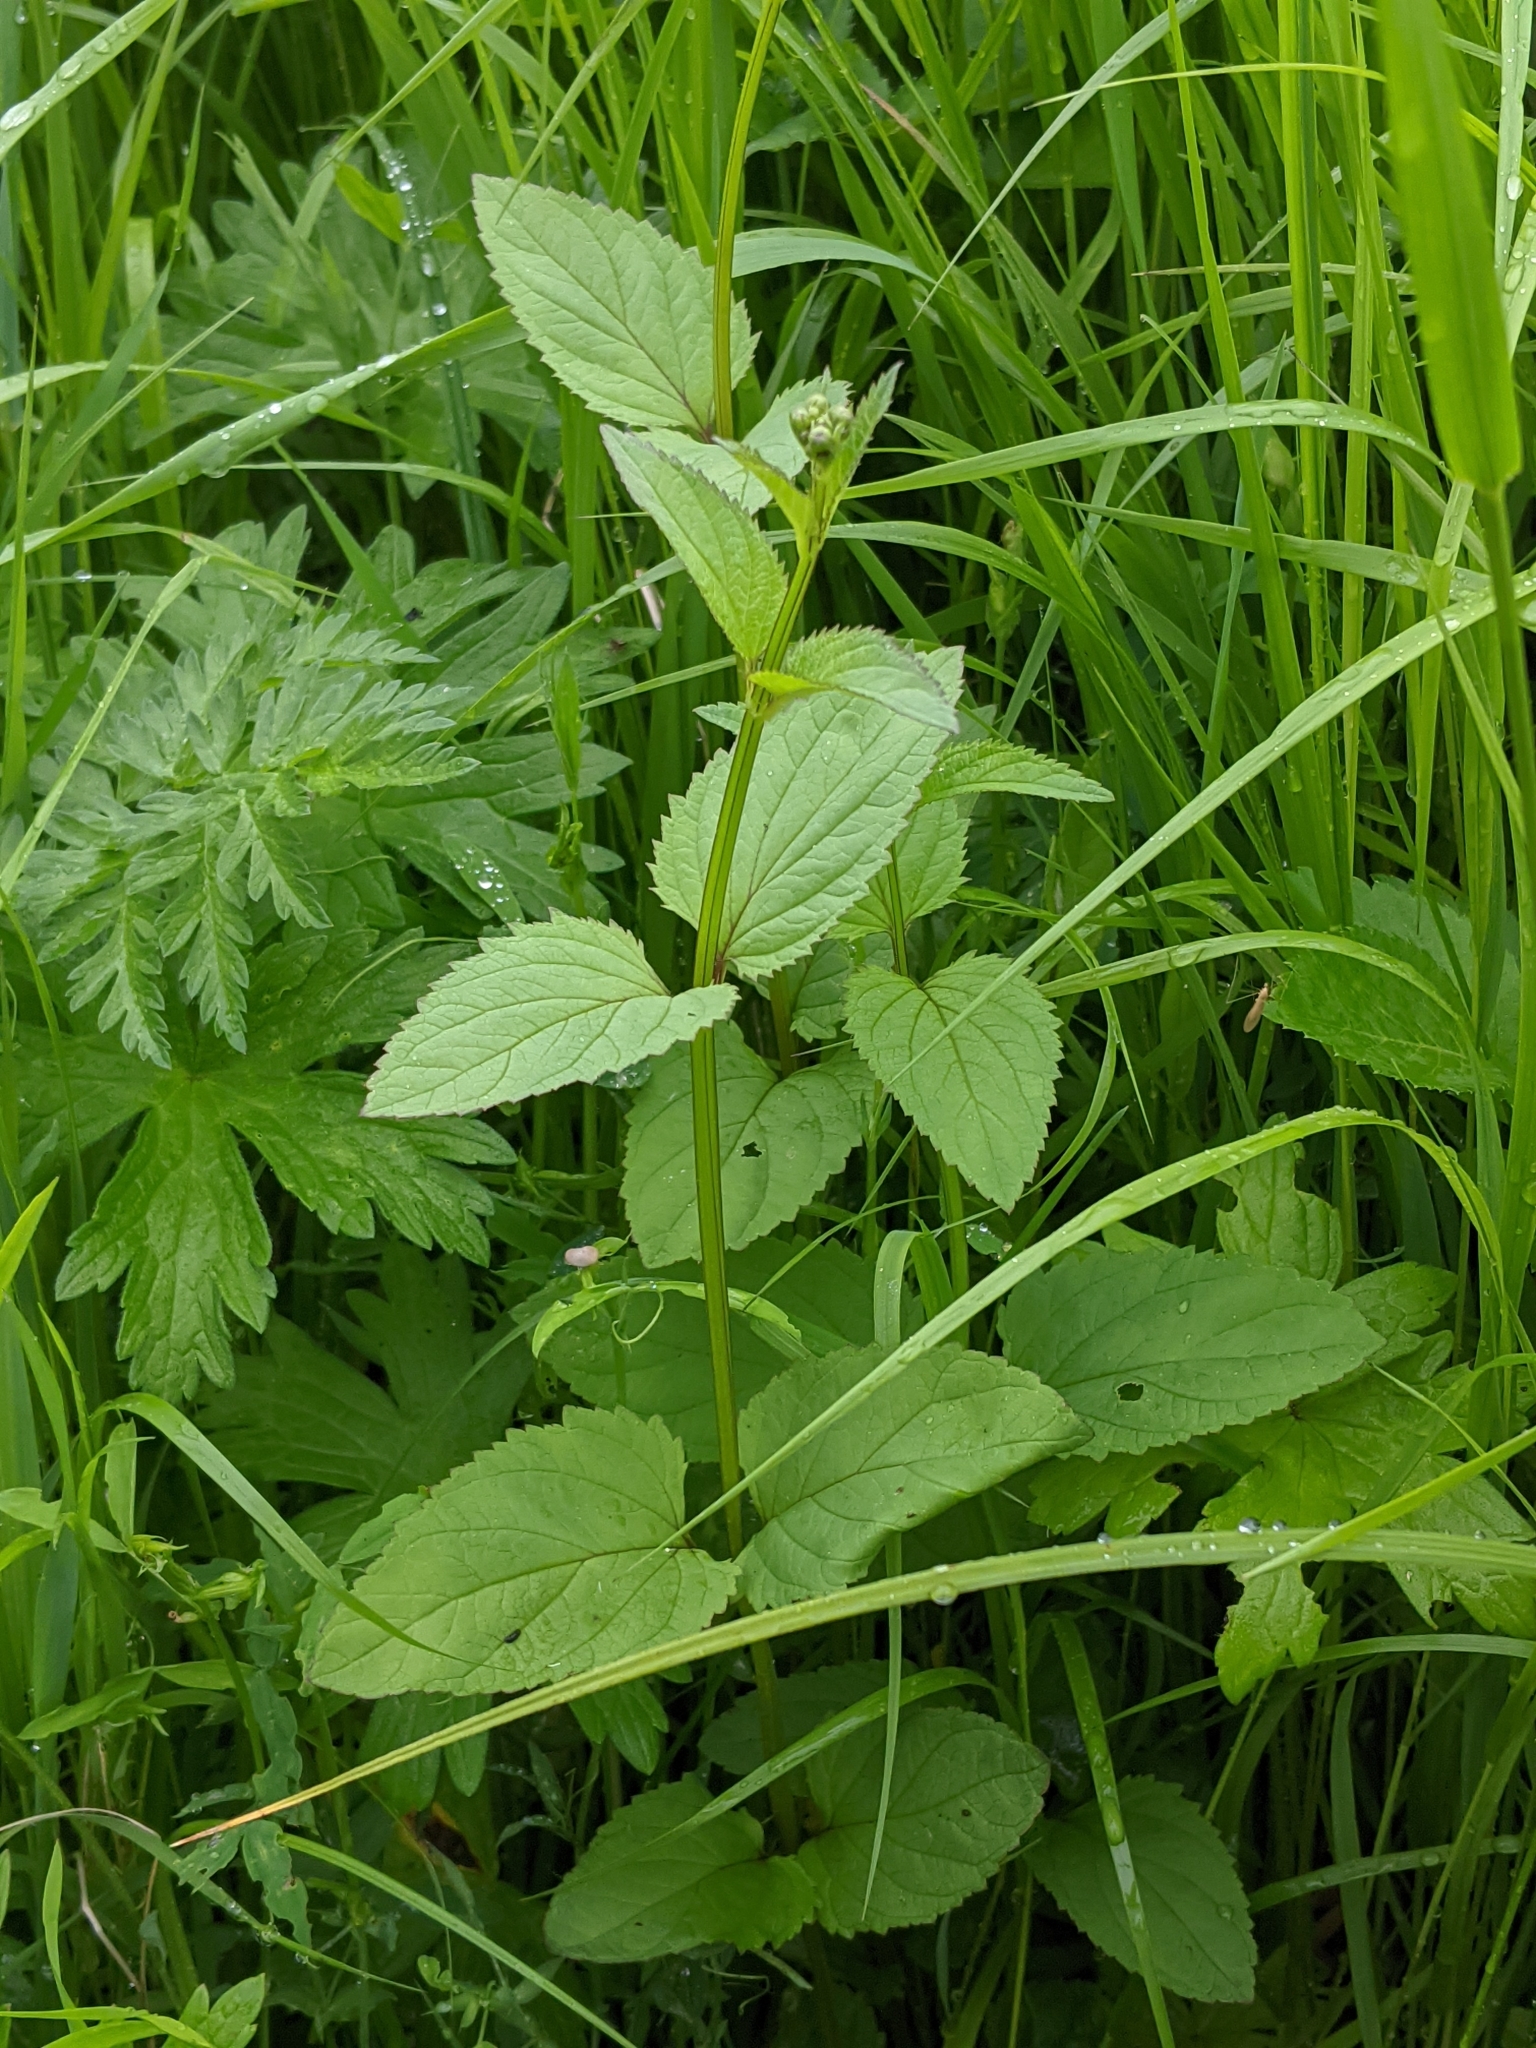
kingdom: Plantae
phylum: Tracheophyta
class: Magnoliopsida
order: Lamiales
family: Scrophulariaceae
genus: Scrophularia
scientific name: Scrophularia nodosa
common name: Common figwort
